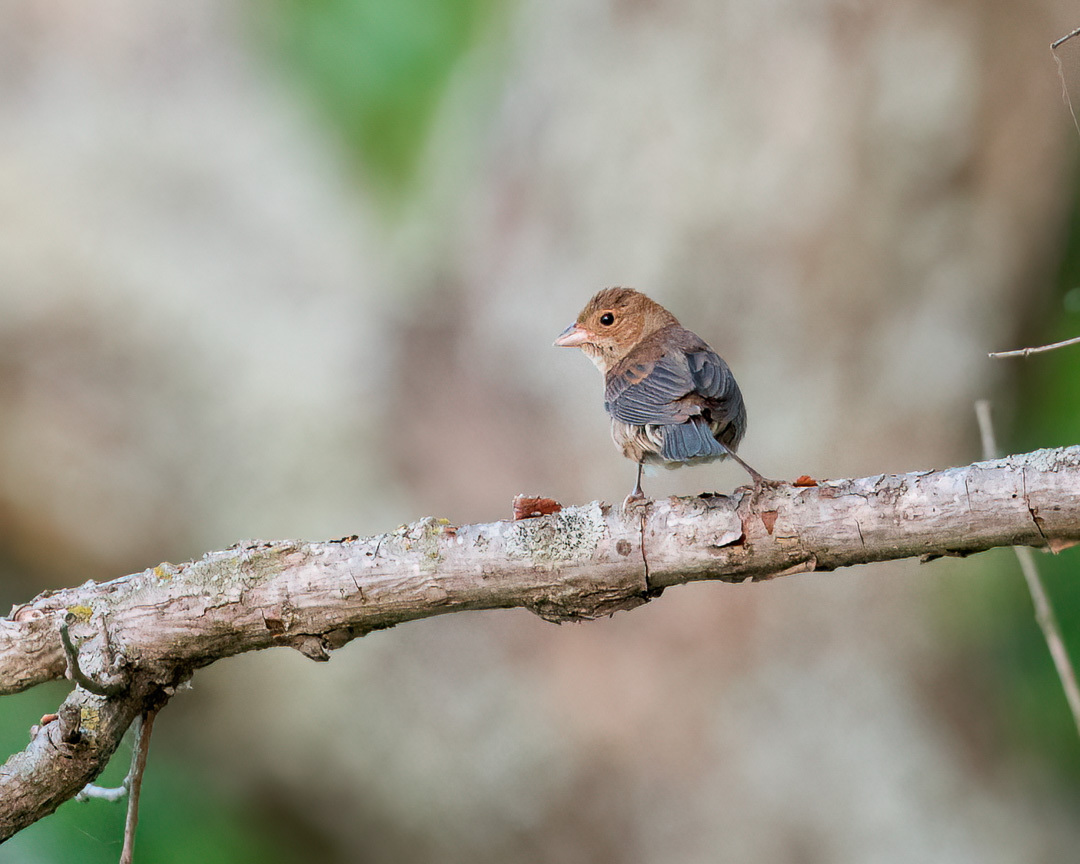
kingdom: Animalia
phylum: Chordata
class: Aves
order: Passeriformes
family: Cardinalidae
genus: Passerina
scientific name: Passerina cyanea
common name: Indigo bunting
